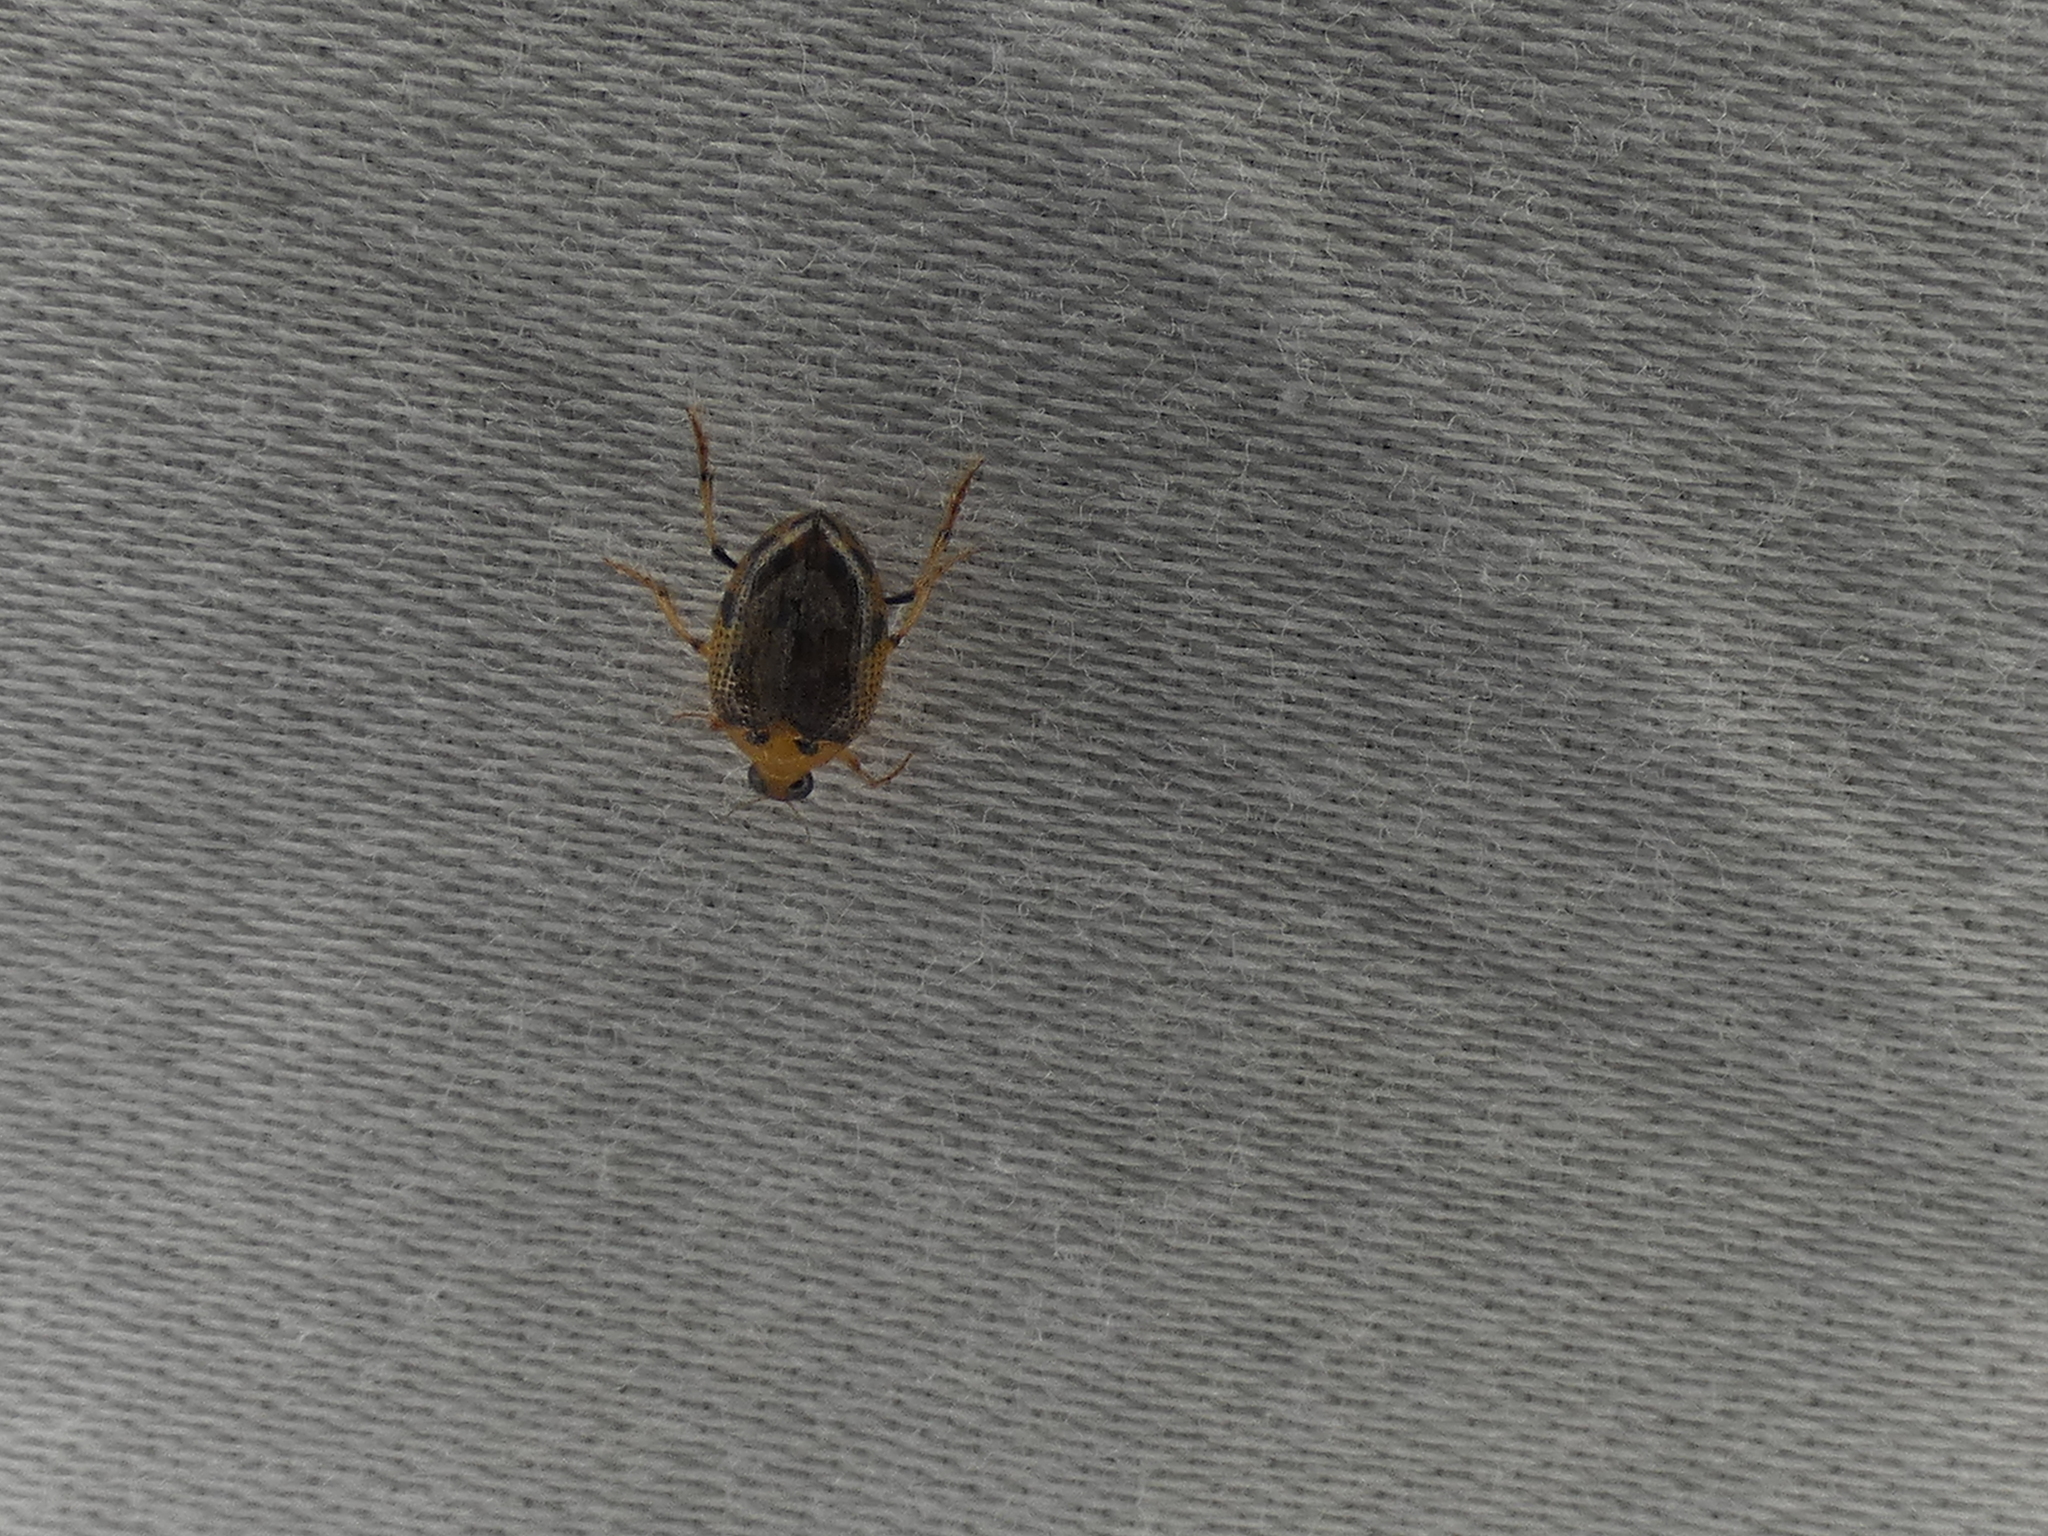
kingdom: Animalia
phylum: Arthropoda
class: Insecta
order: Coleoptera
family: Haliplidae
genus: Peltodytes
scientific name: Peltodytes
